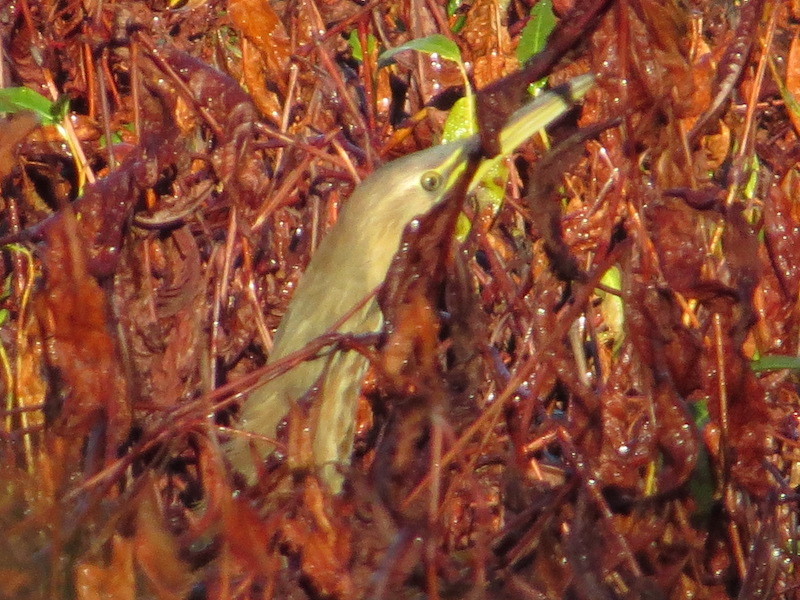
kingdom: Animalia
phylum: Chordata
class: Aves
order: Pelecaniformes
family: Ardeidae
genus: Botaurus
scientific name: Botaurus lentiginosus
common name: American bittern
